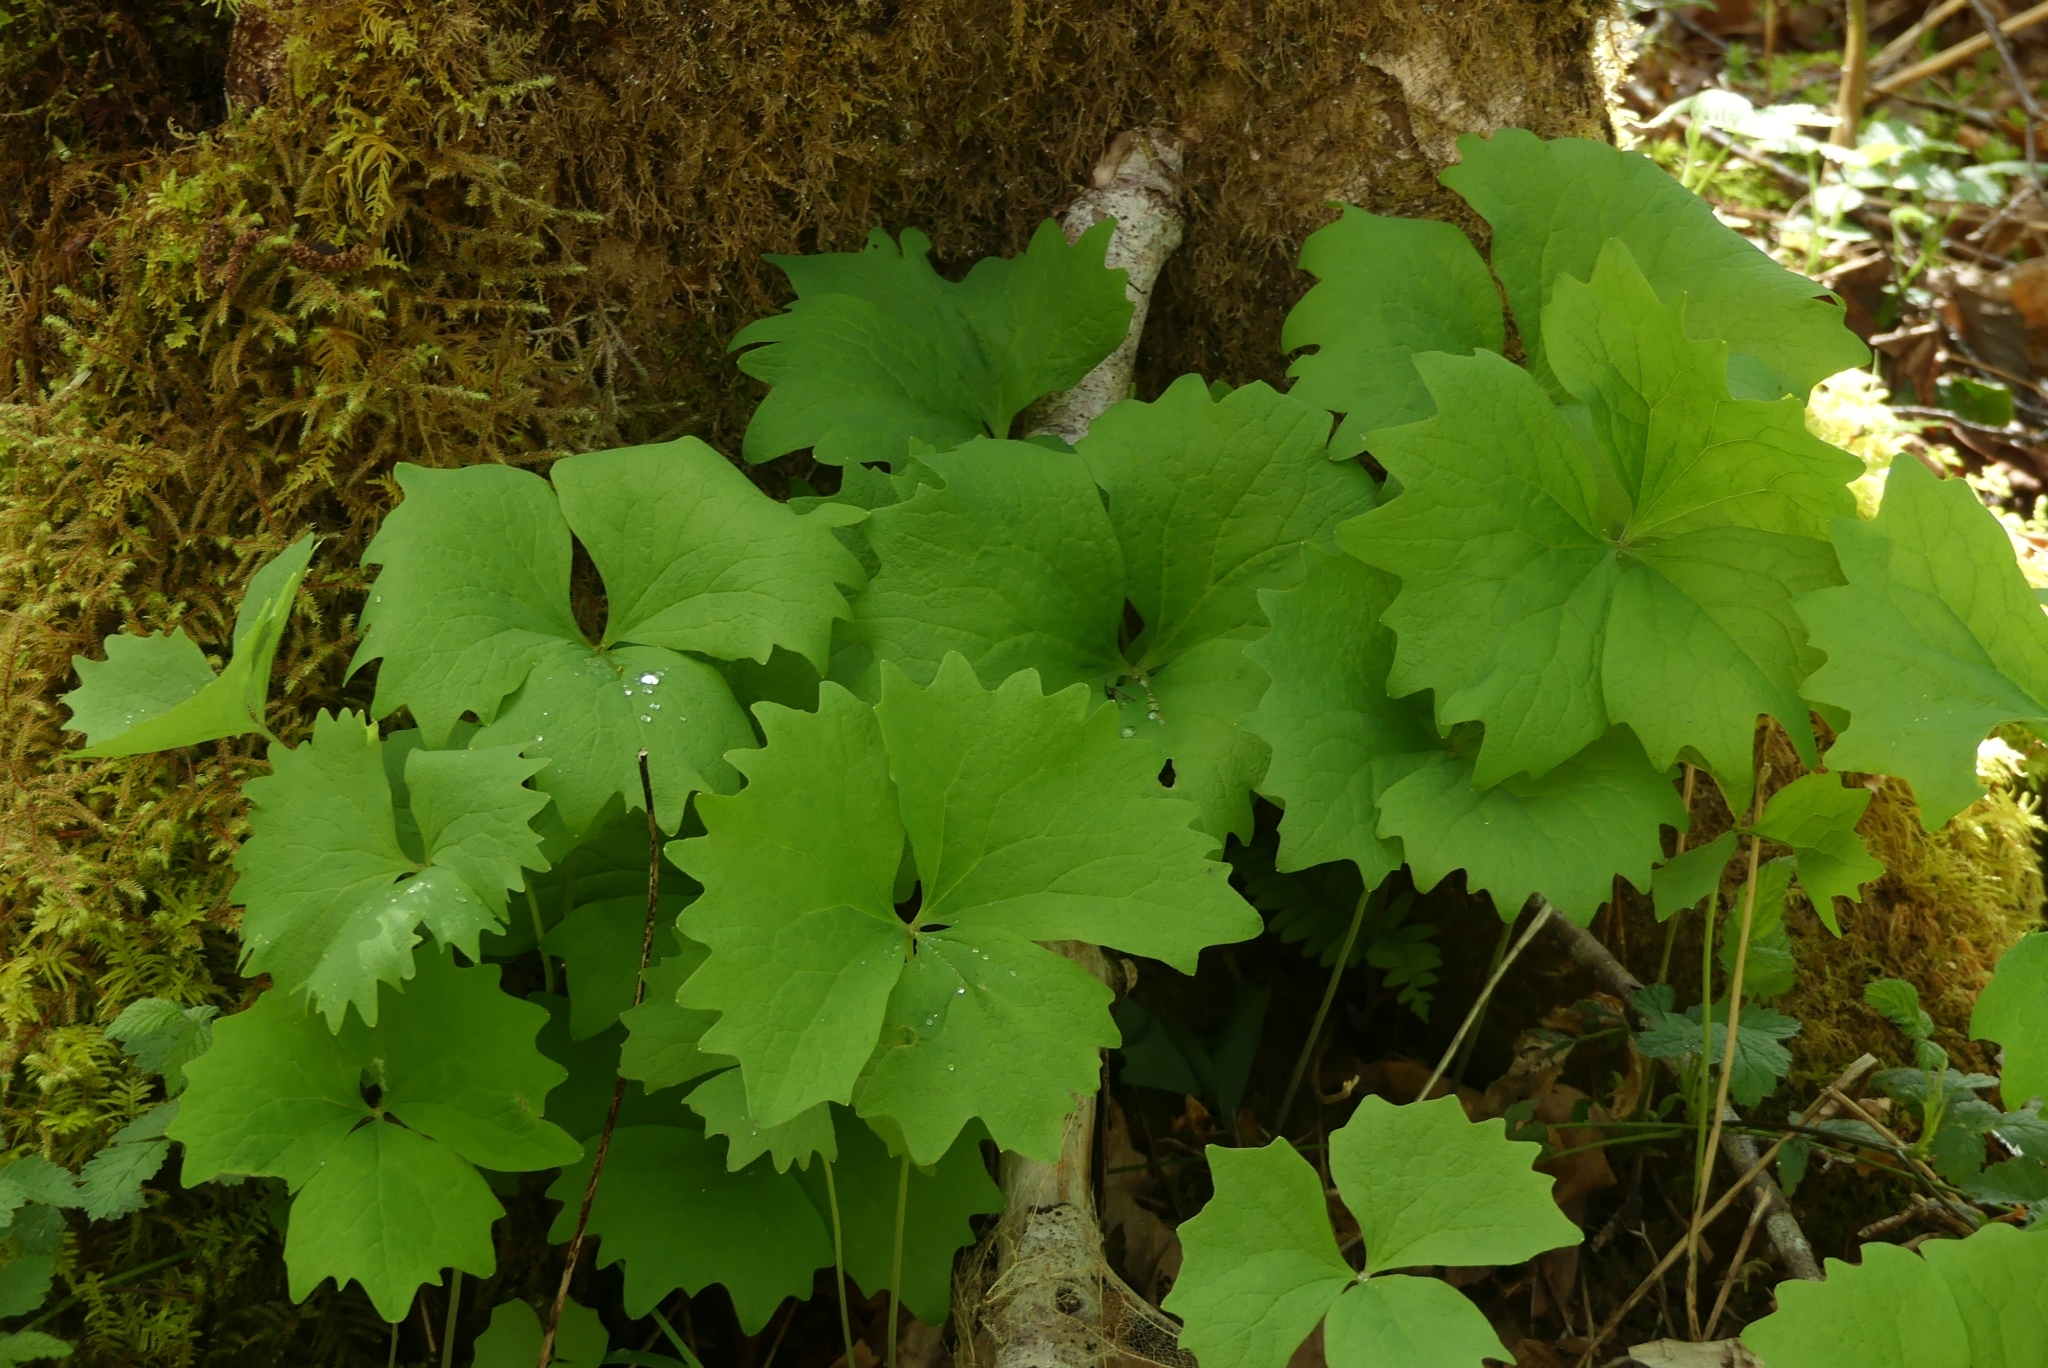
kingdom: Plantae
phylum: Tracheophyta
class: Magnoliopsida
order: Ranunculales
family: Berberidaceae
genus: Achlys
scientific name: Achlys triphylla
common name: Vanilla-leaf
